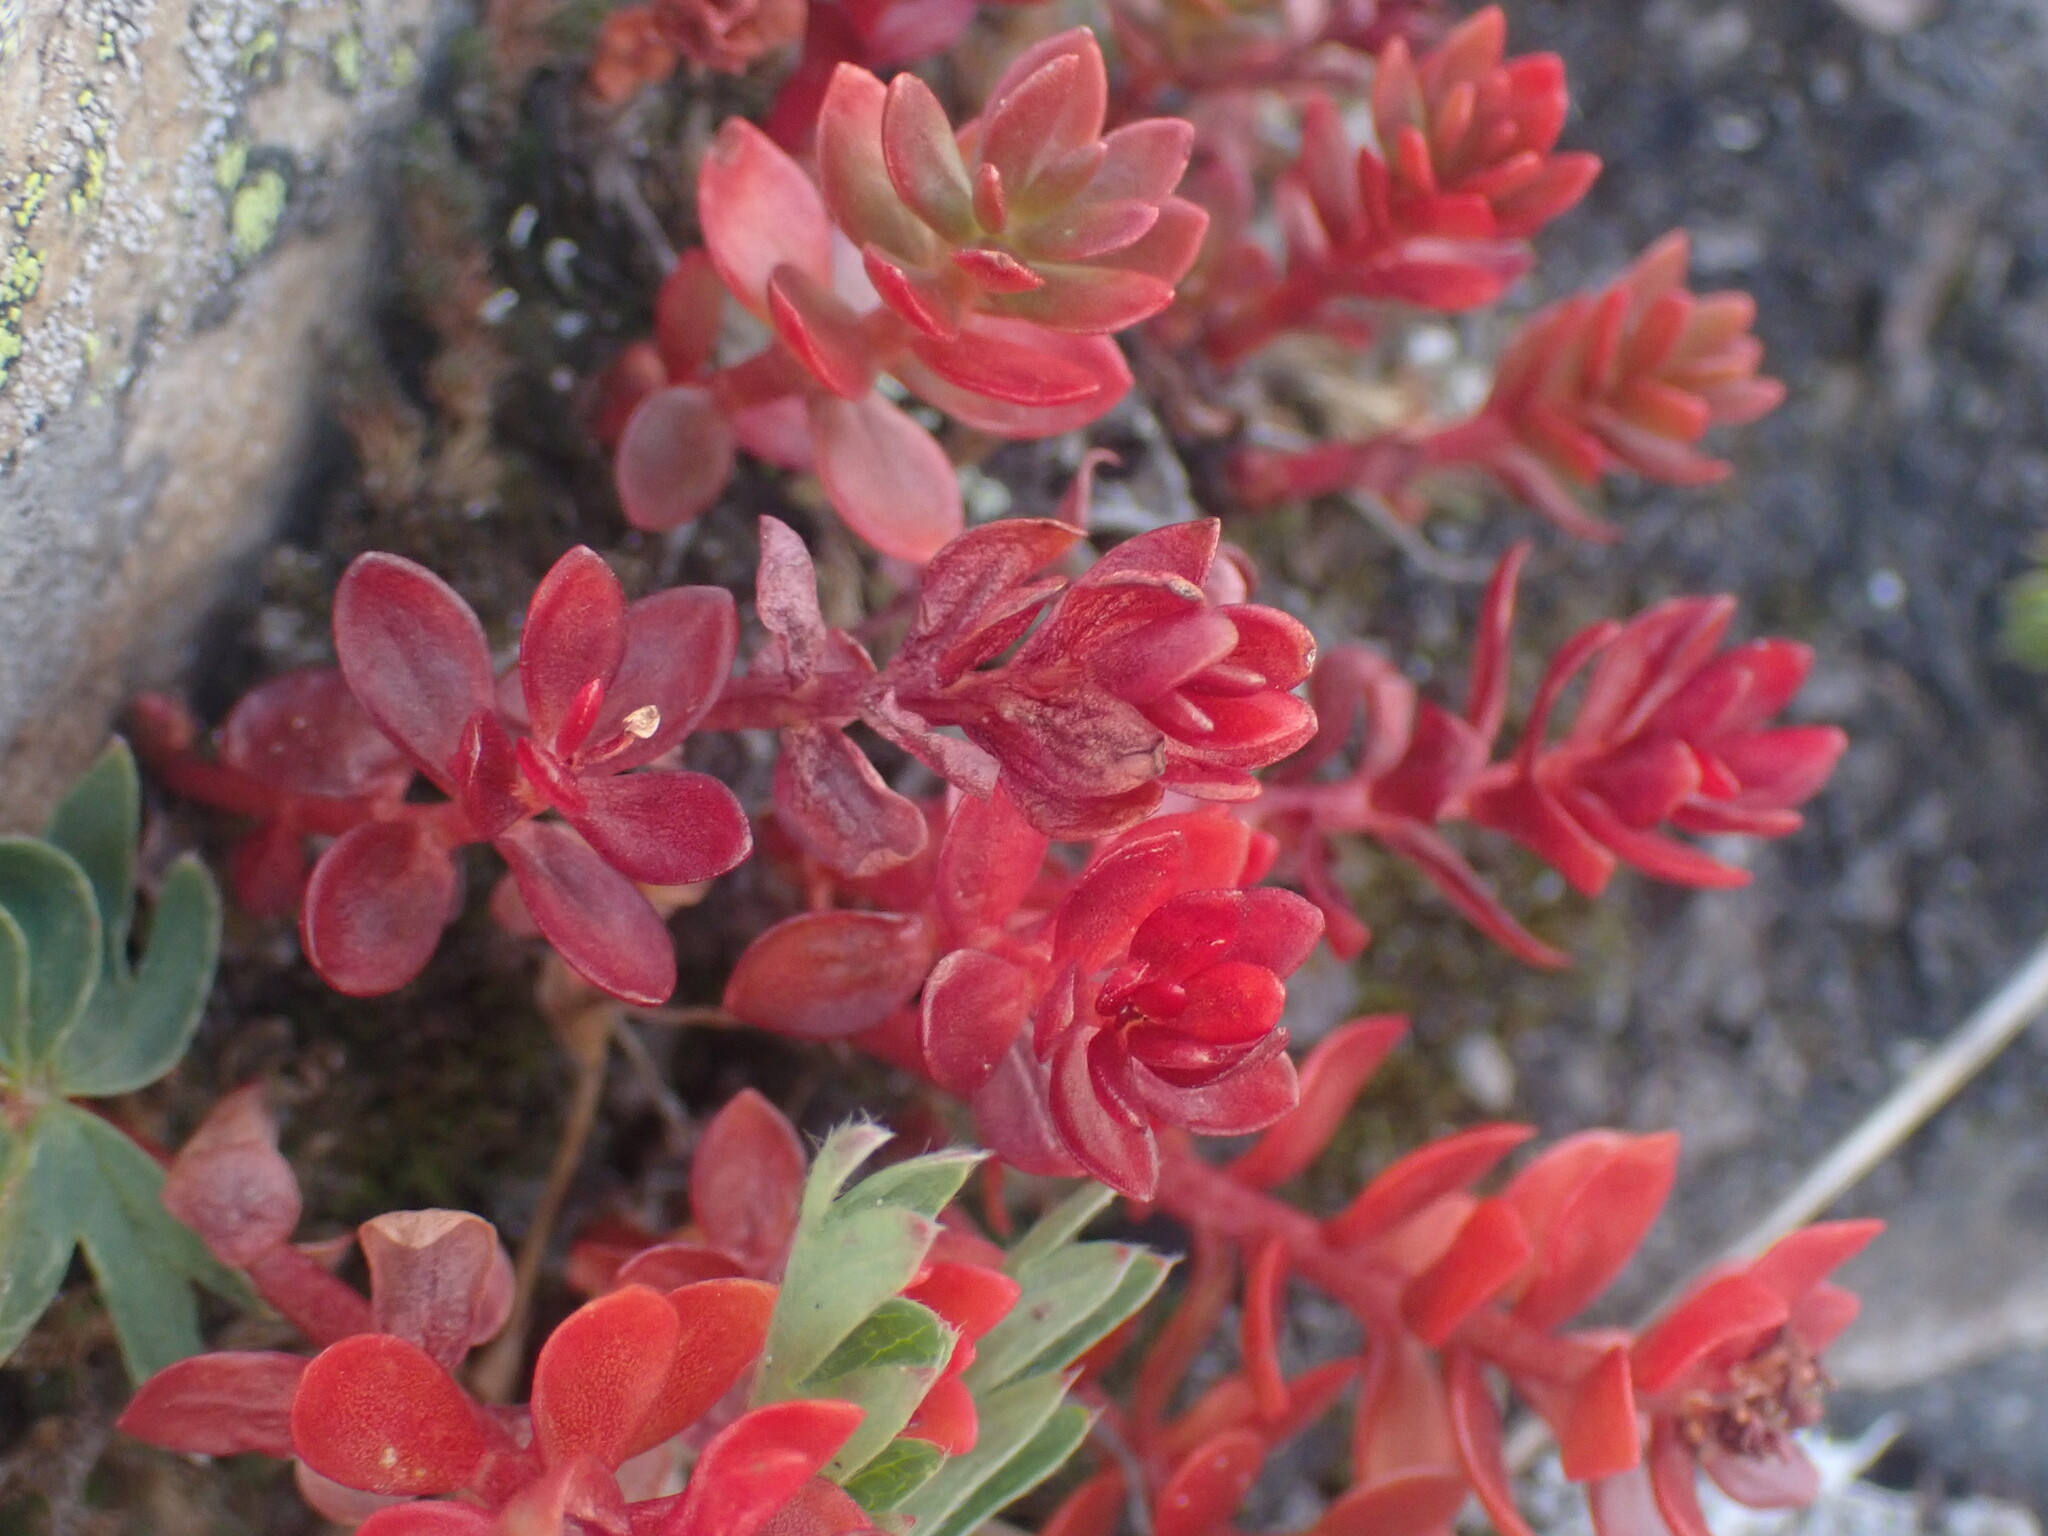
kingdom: Plantae
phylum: Tracheophyta
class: Magnoliopsida
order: Saxifragales
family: Crassulaceae
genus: Rhodiola
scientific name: Rhodiola integrifolia
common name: Western roseroot
